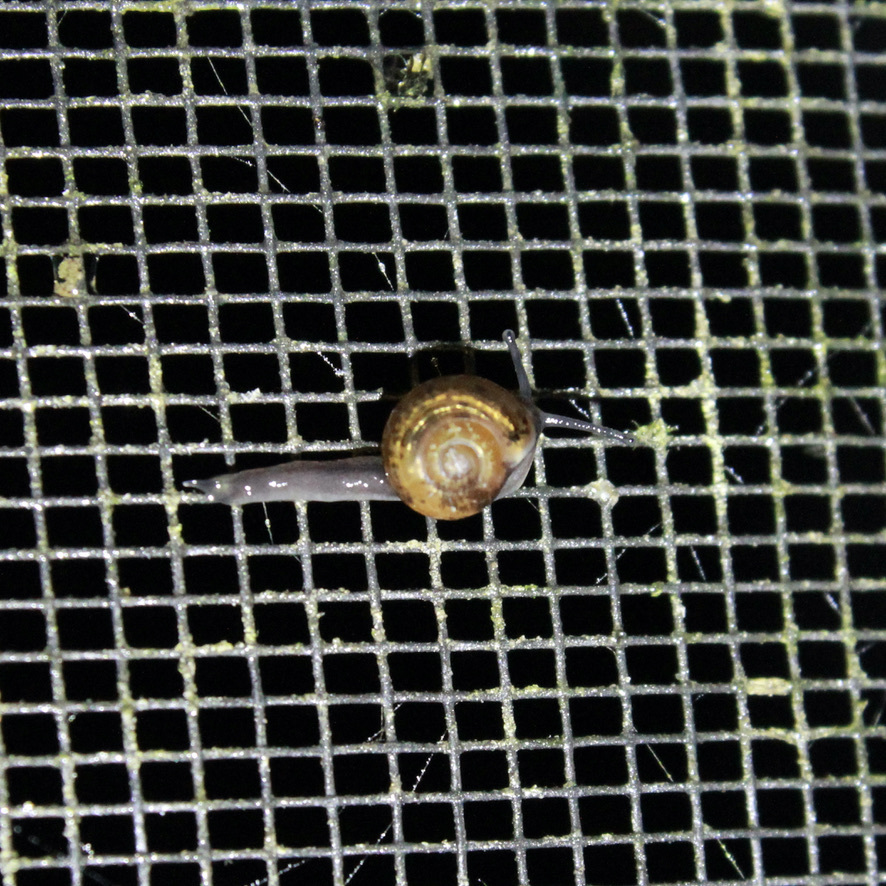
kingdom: Animalia
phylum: Mollusca
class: Gastropoda
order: Stylommatophora
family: Helicarionidae
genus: Ovachlamys
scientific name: Ovachlamys fulgens
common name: Jumping snail
